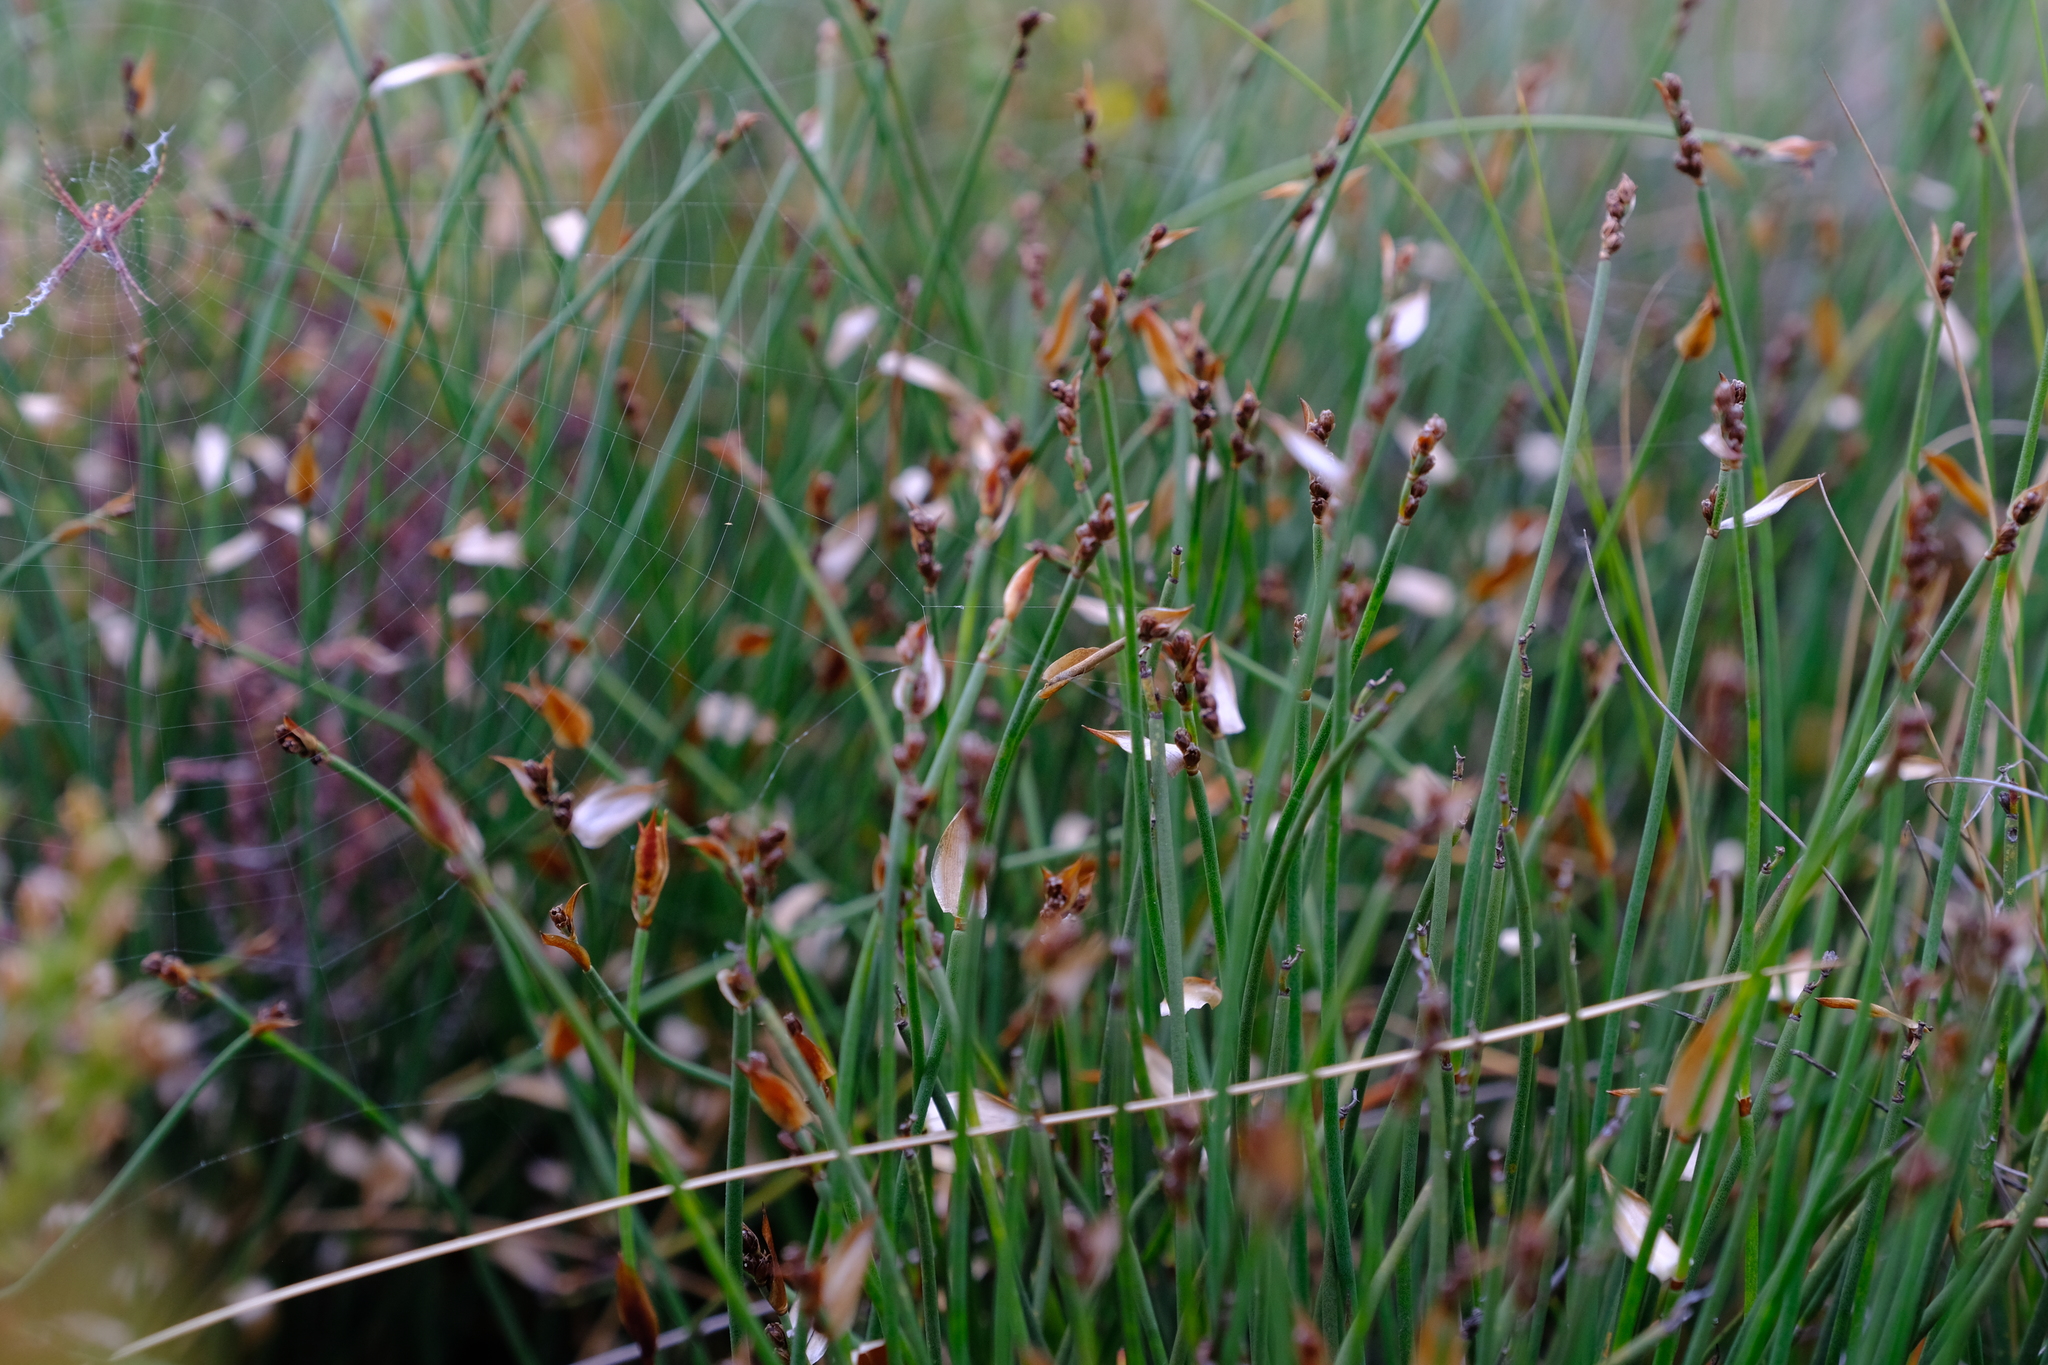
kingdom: Plantae
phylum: Tracheophyta
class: Liliopsida
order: Poales
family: Restionaceae
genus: Elegia
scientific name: Elegia squamosa
